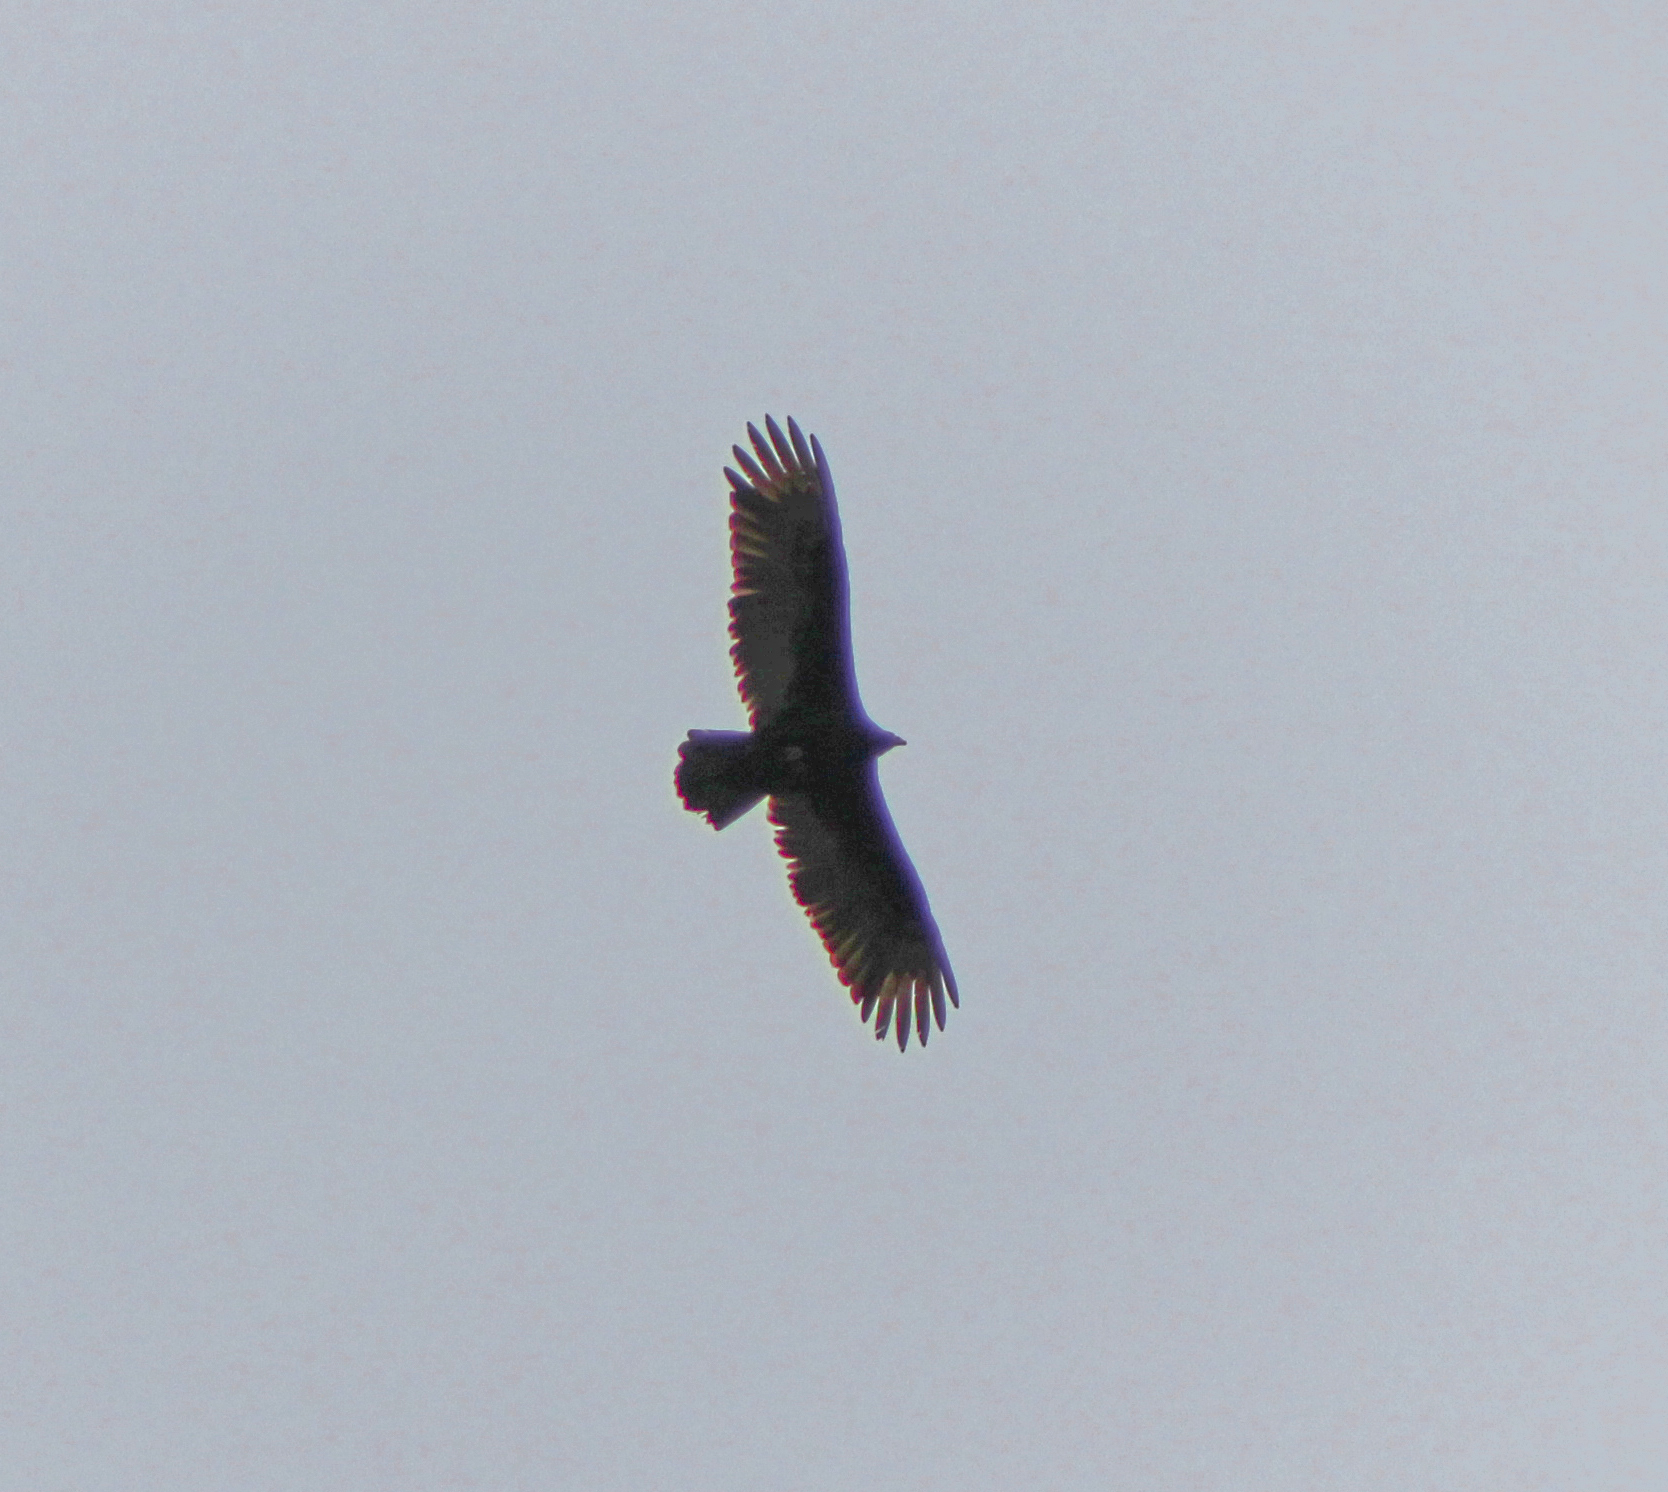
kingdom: Animalia
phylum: Chordata
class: Aves
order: Accipitriformes
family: Cathartidae
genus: Cathartes
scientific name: Cathartes aura
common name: Turkey vulture
